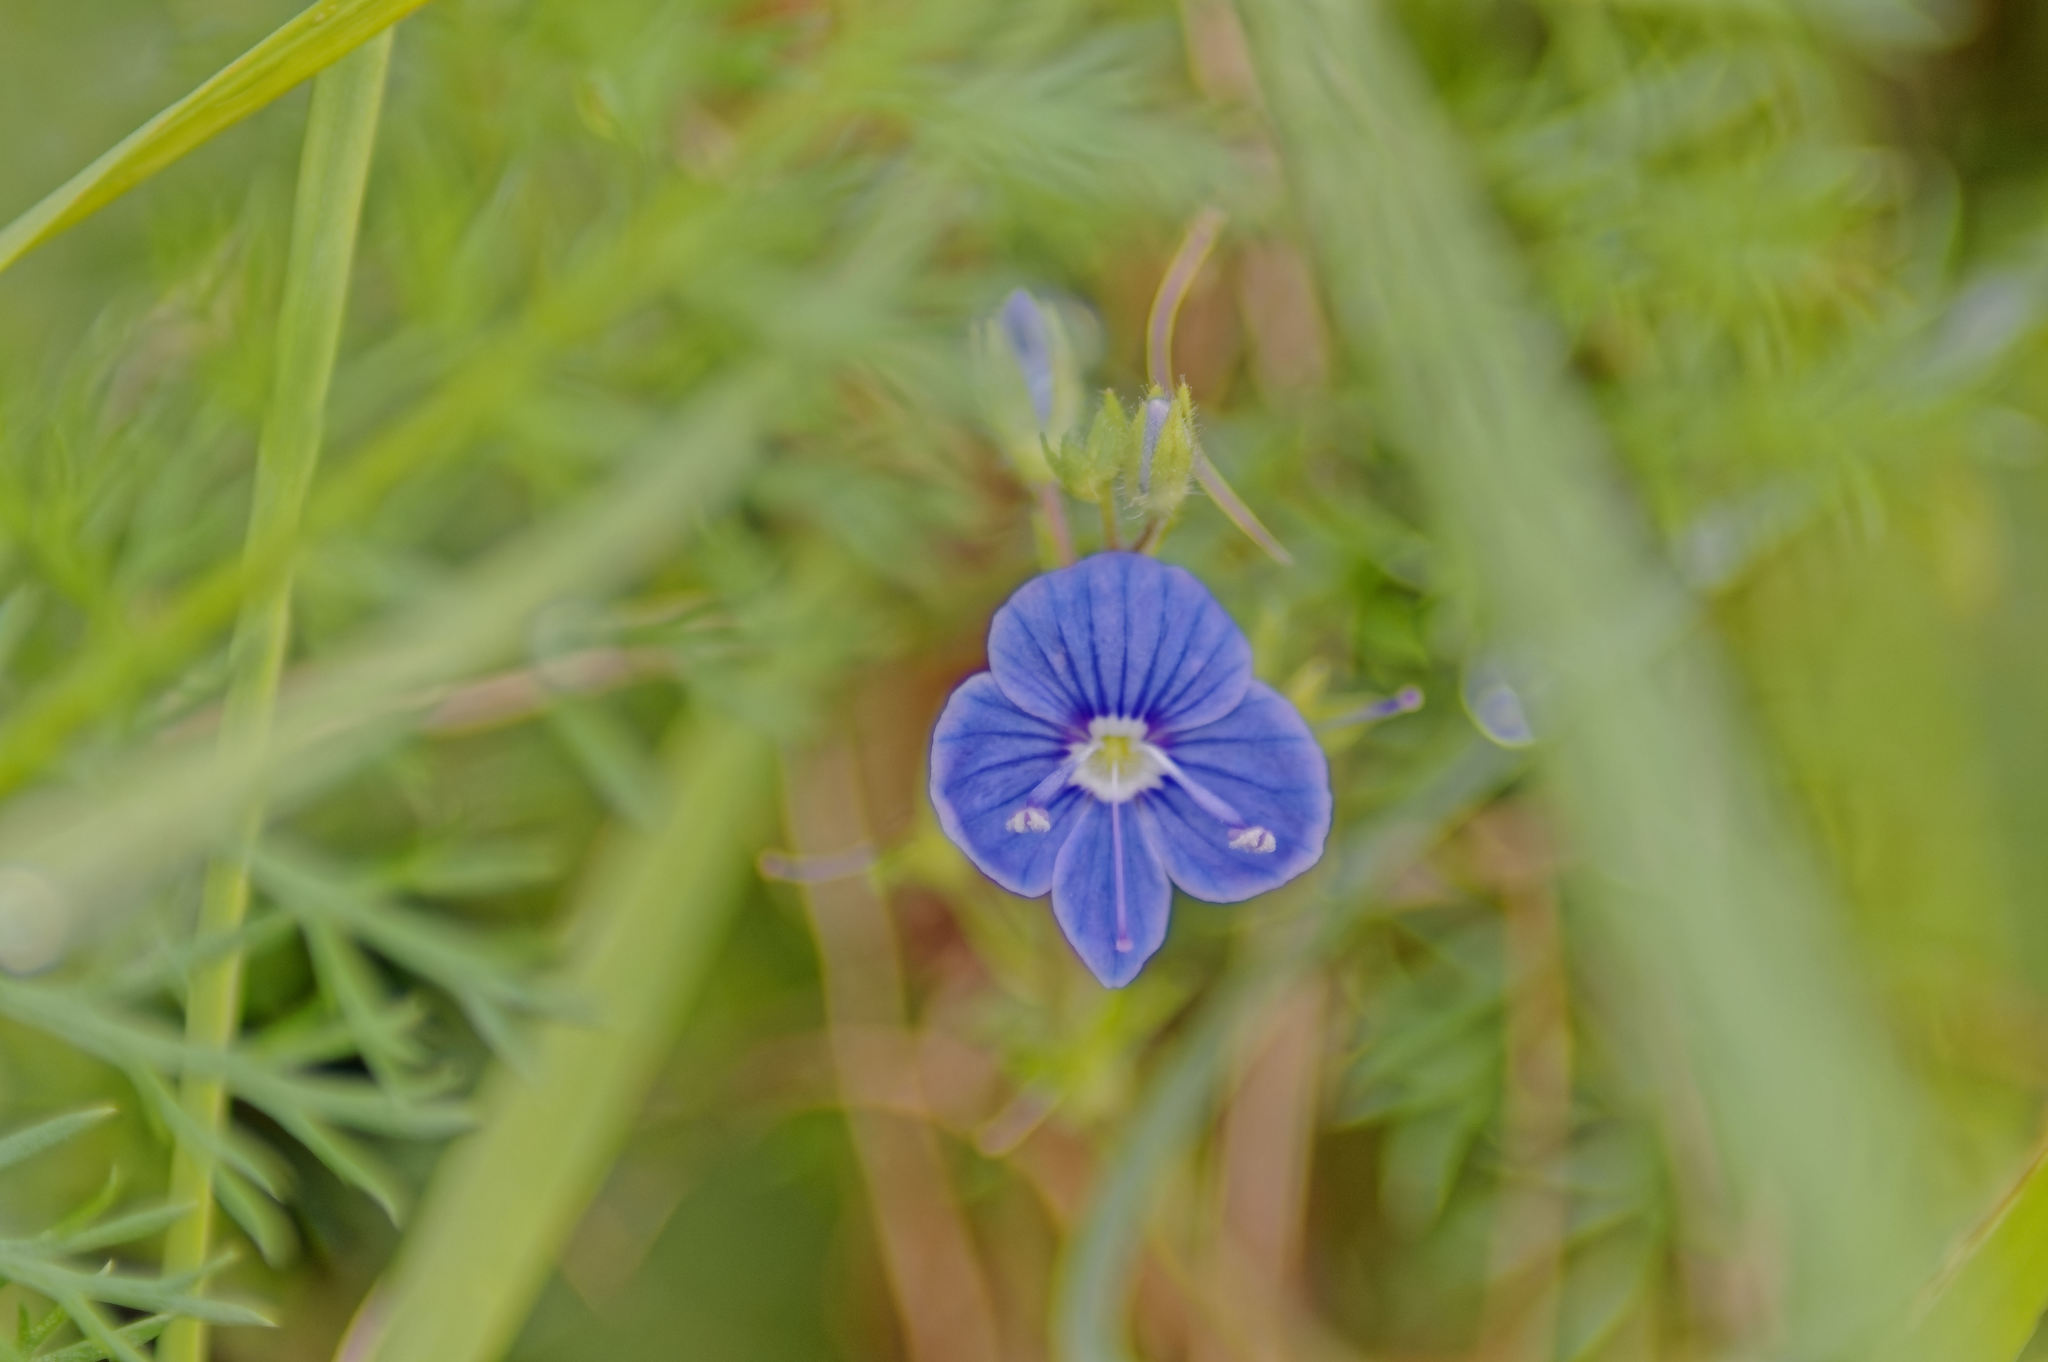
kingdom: Plantae
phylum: Tracheophyta
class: Magnoliopsida
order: Lamiales
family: Plantaginaceae
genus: Veronica
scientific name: Veronica chamaedrys
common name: Germander speedwell
